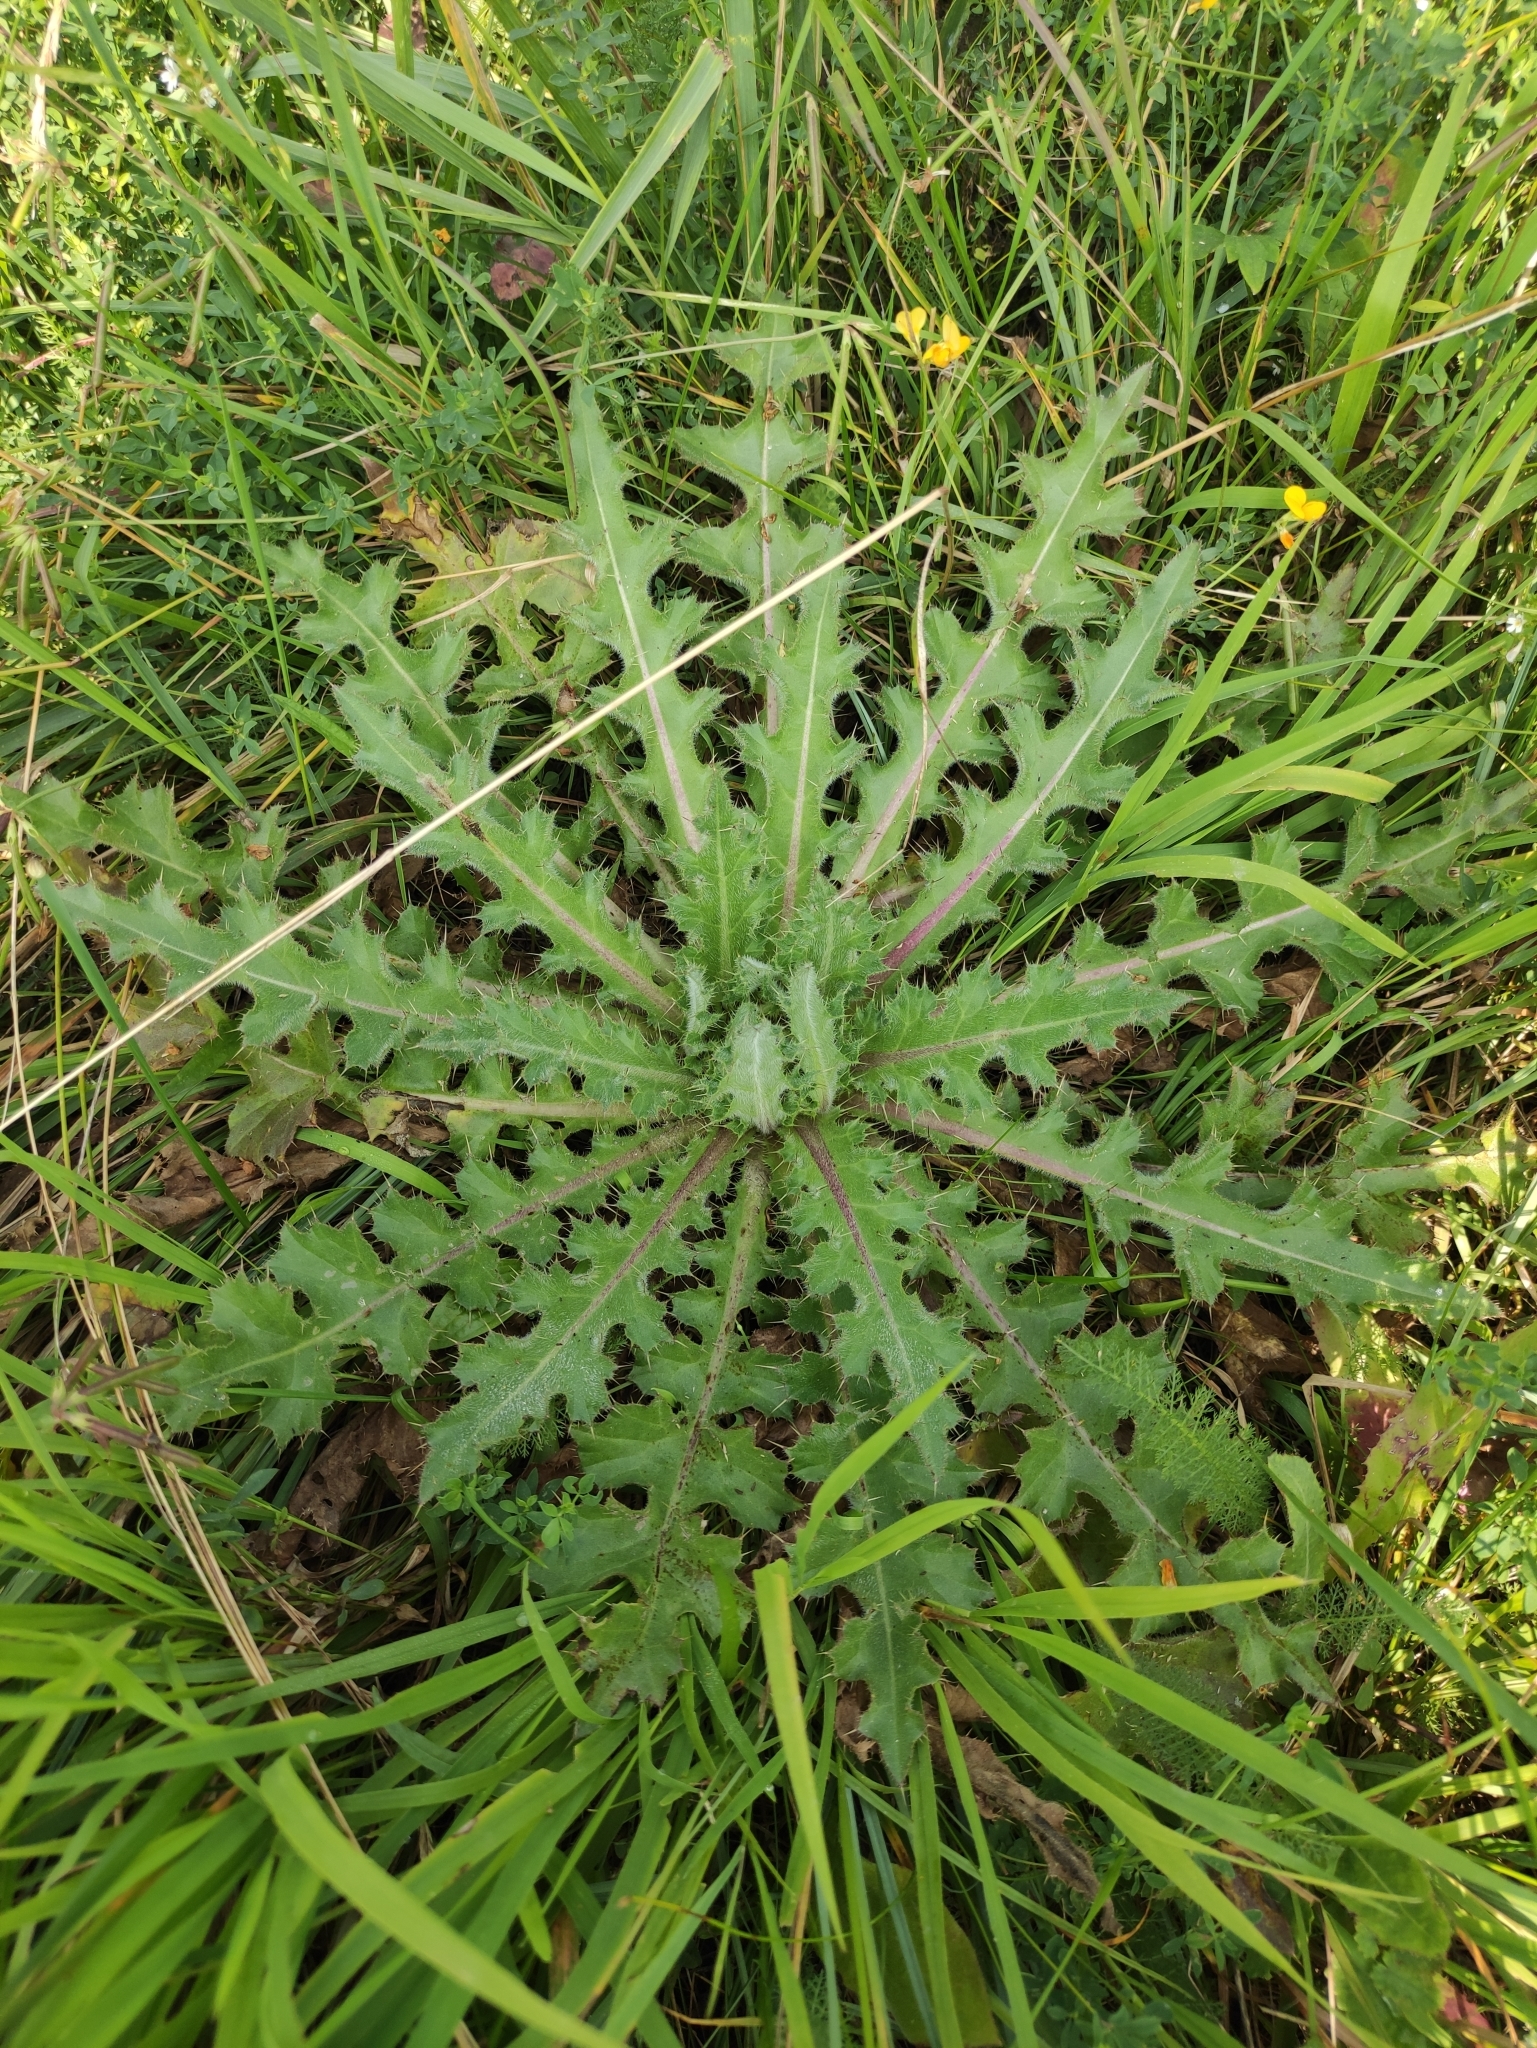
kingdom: Plantae
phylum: Tracheophyta
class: Magnoliopsida
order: Asterales
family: Asteraceae
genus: Cirsium
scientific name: Cirsium esculentum
